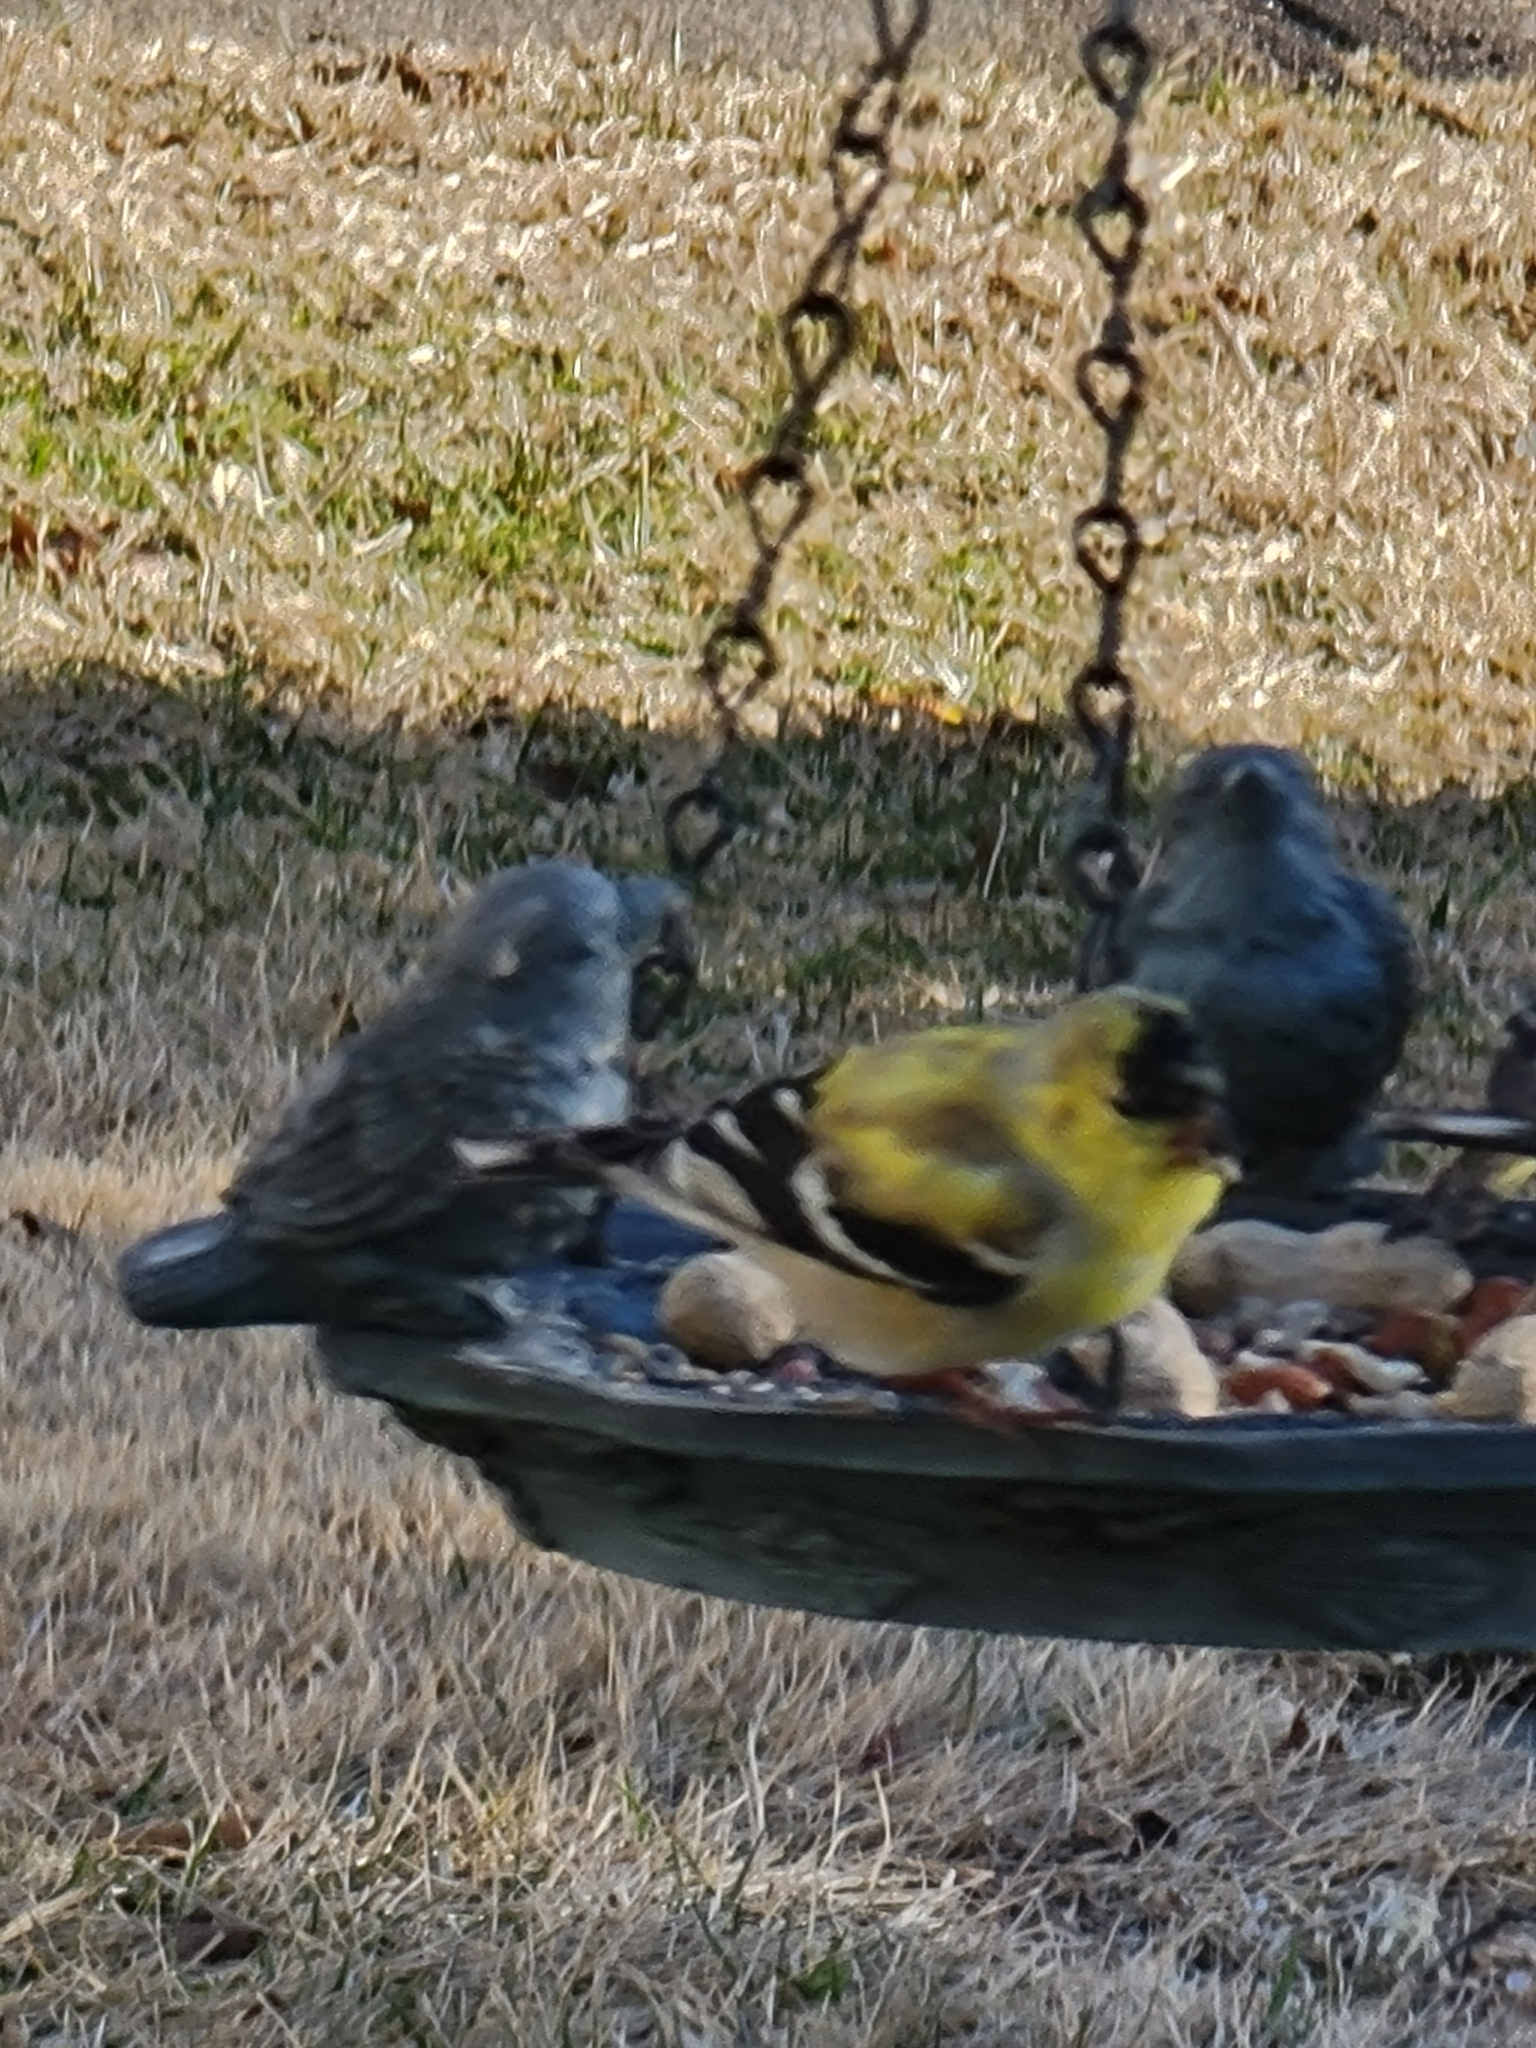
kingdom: Animalia
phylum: Chordata
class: Aves
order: Passeriformes
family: Fringillidae
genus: Spinus
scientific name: Spinus tristis
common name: American goldfinch
